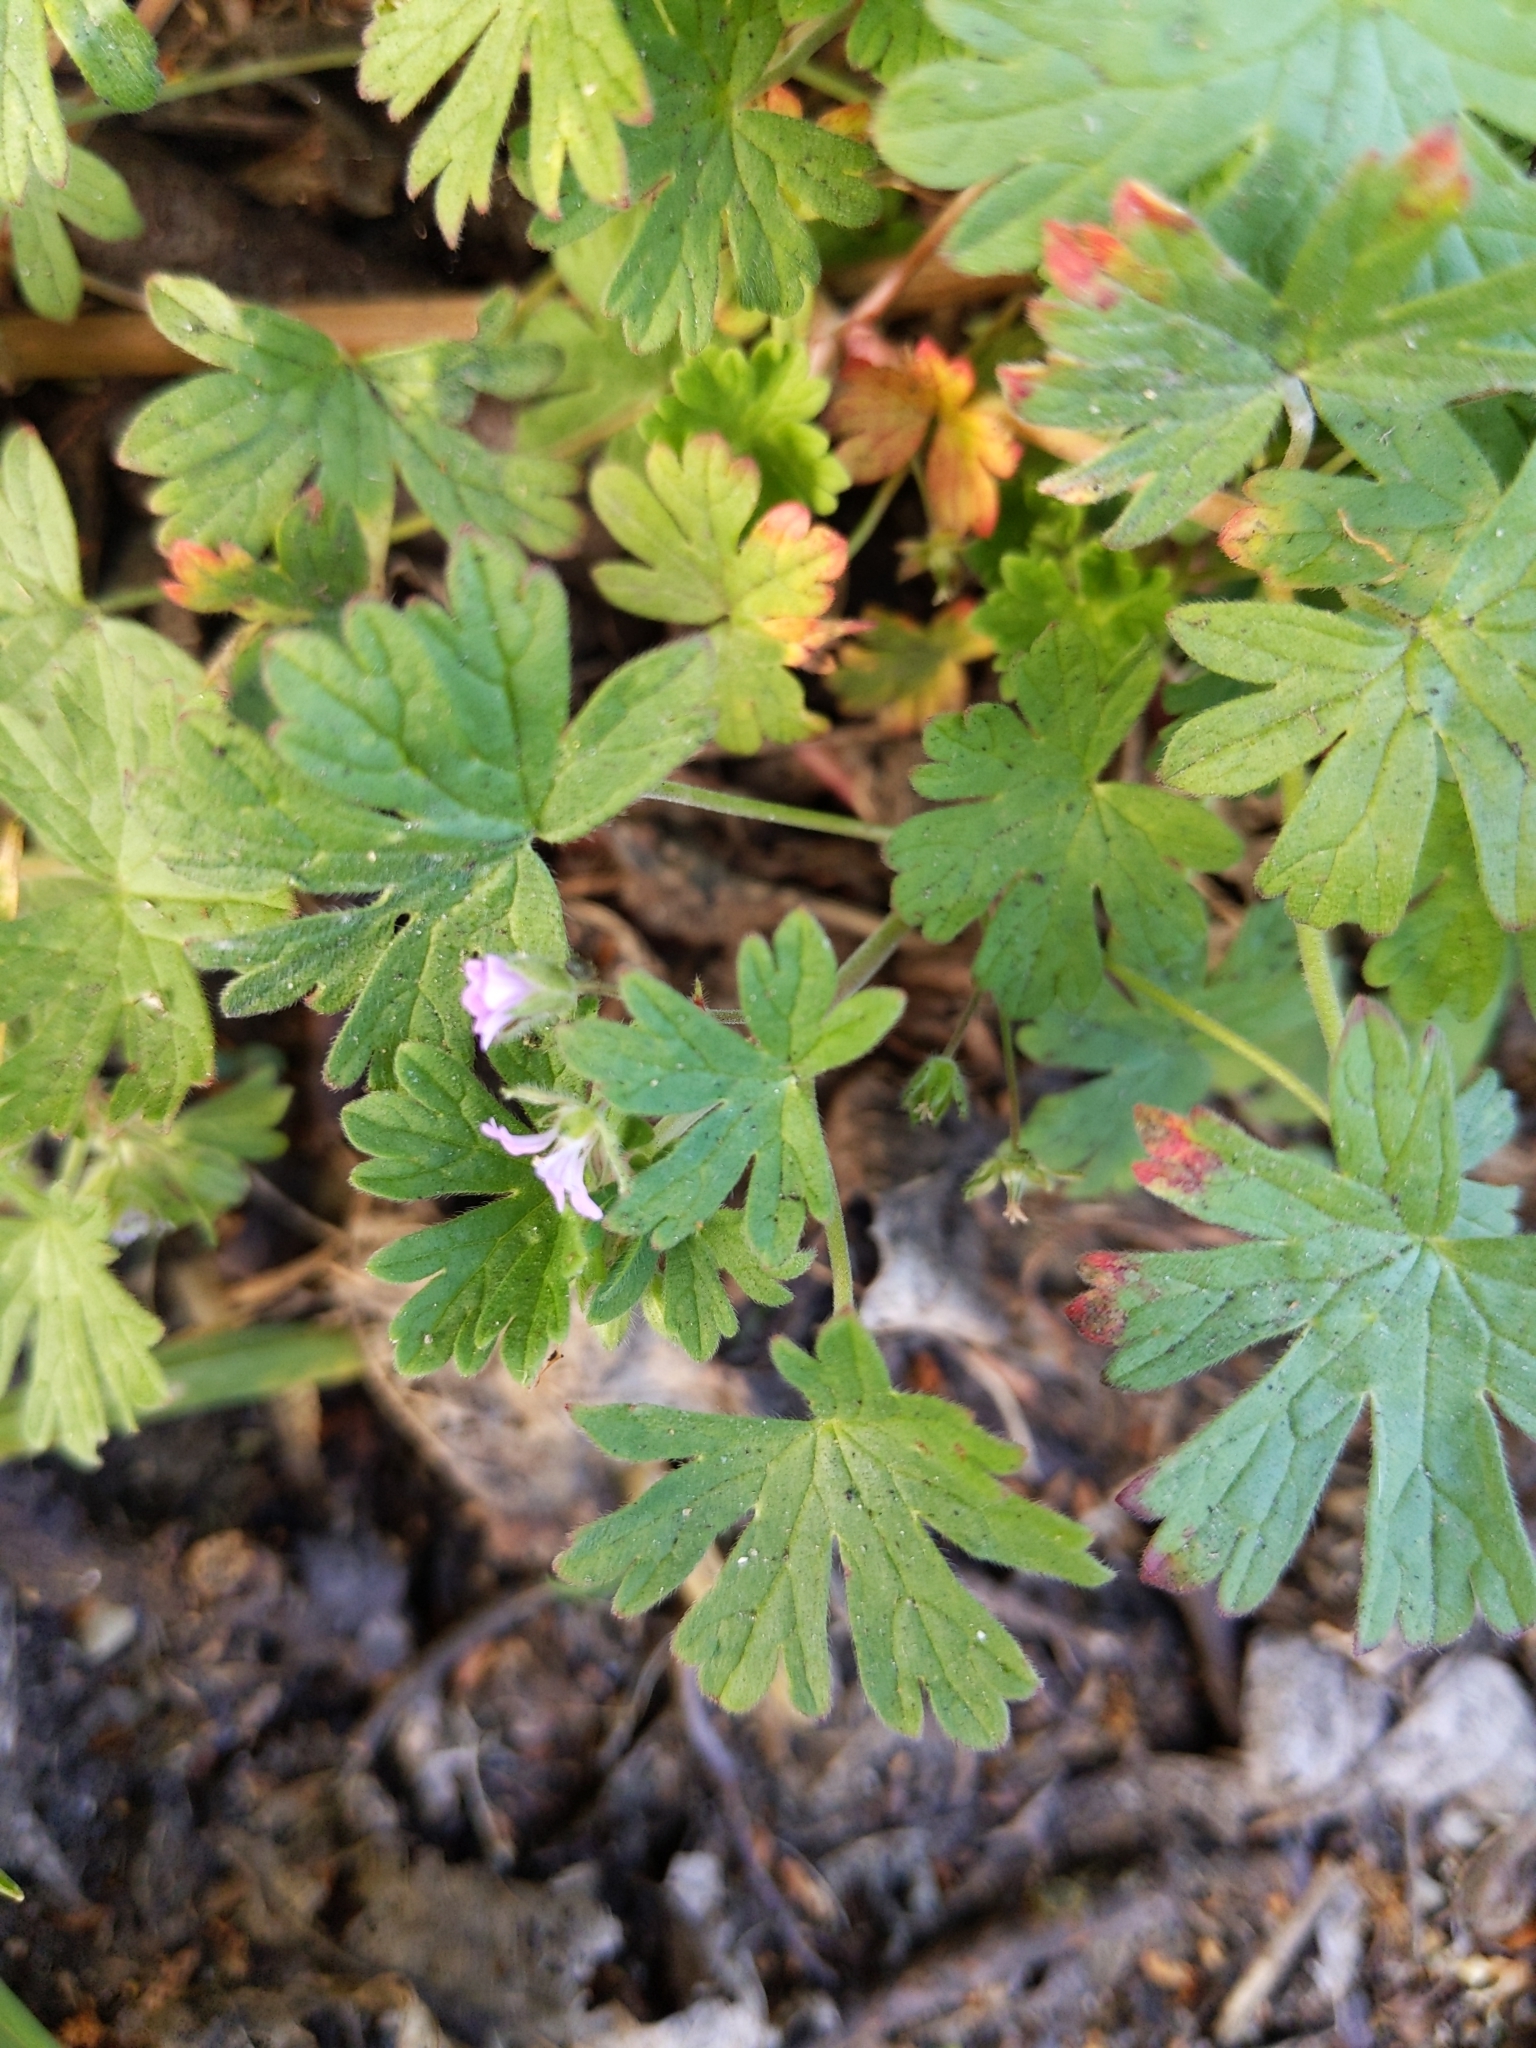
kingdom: Plantae
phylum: Tracheophyta
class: Magnoliopsida
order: Geraniales
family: Geraniaceae
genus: Geranium
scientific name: Geranium pusillum
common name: Small geranium
